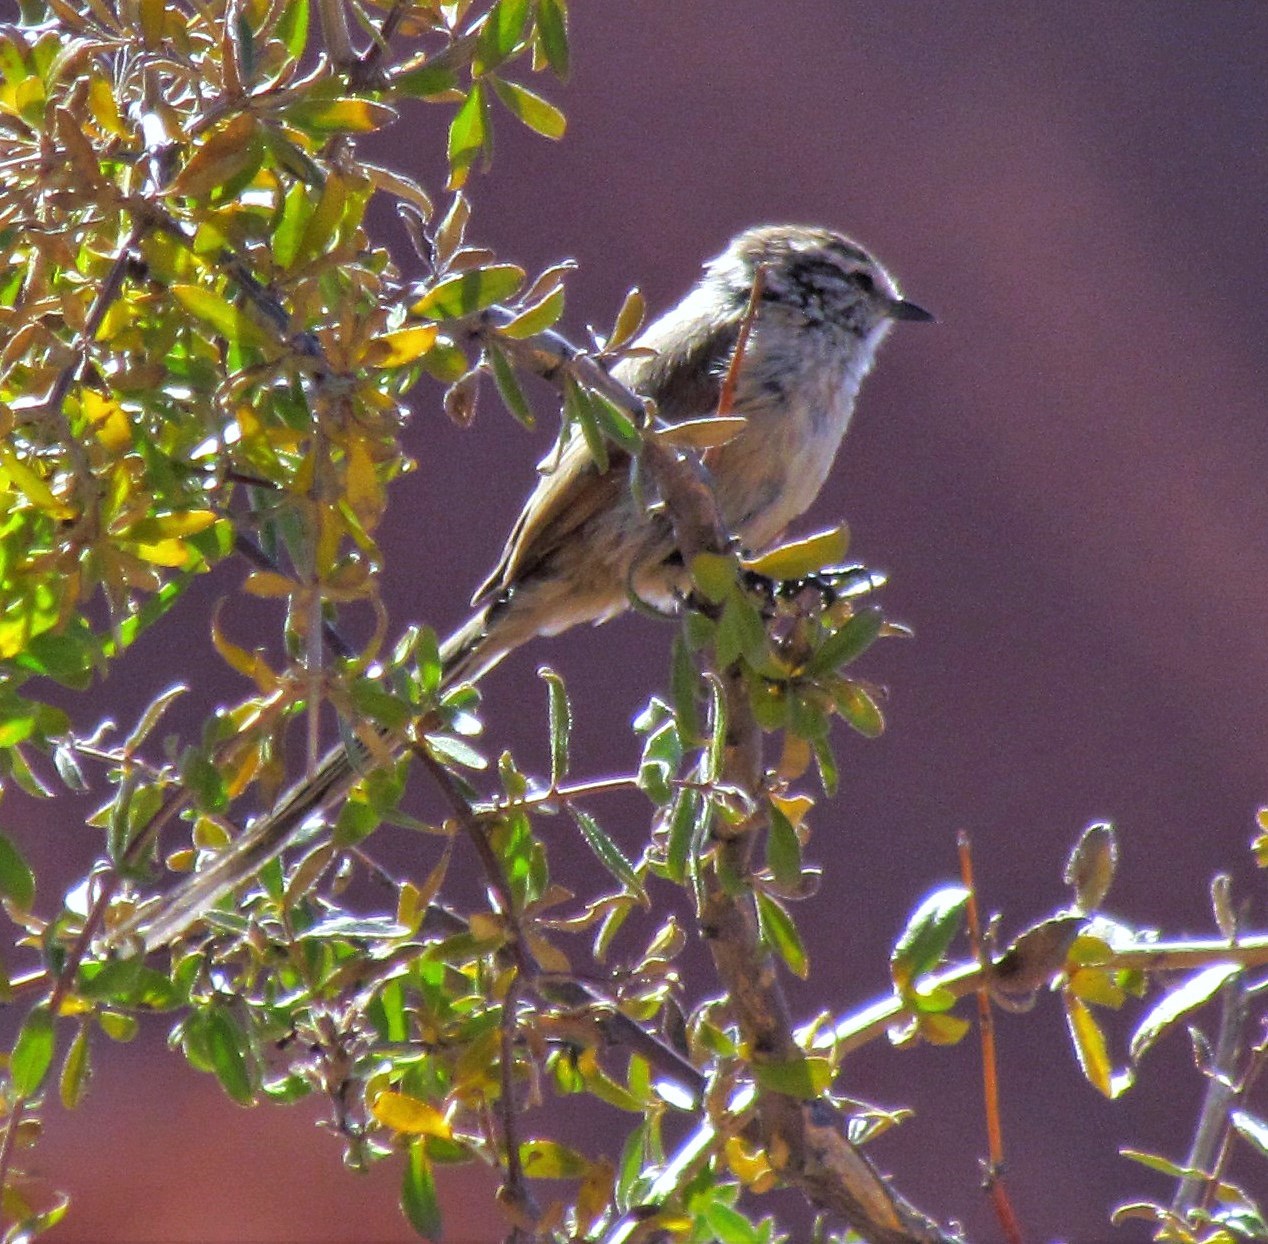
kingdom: Animalia
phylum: Chordata
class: Aves
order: Passeriformes
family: Furnariidae
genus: Leptasthenura
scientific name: Leptasthenura aegithaloides
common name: Plain-mantled tit-spinetail
